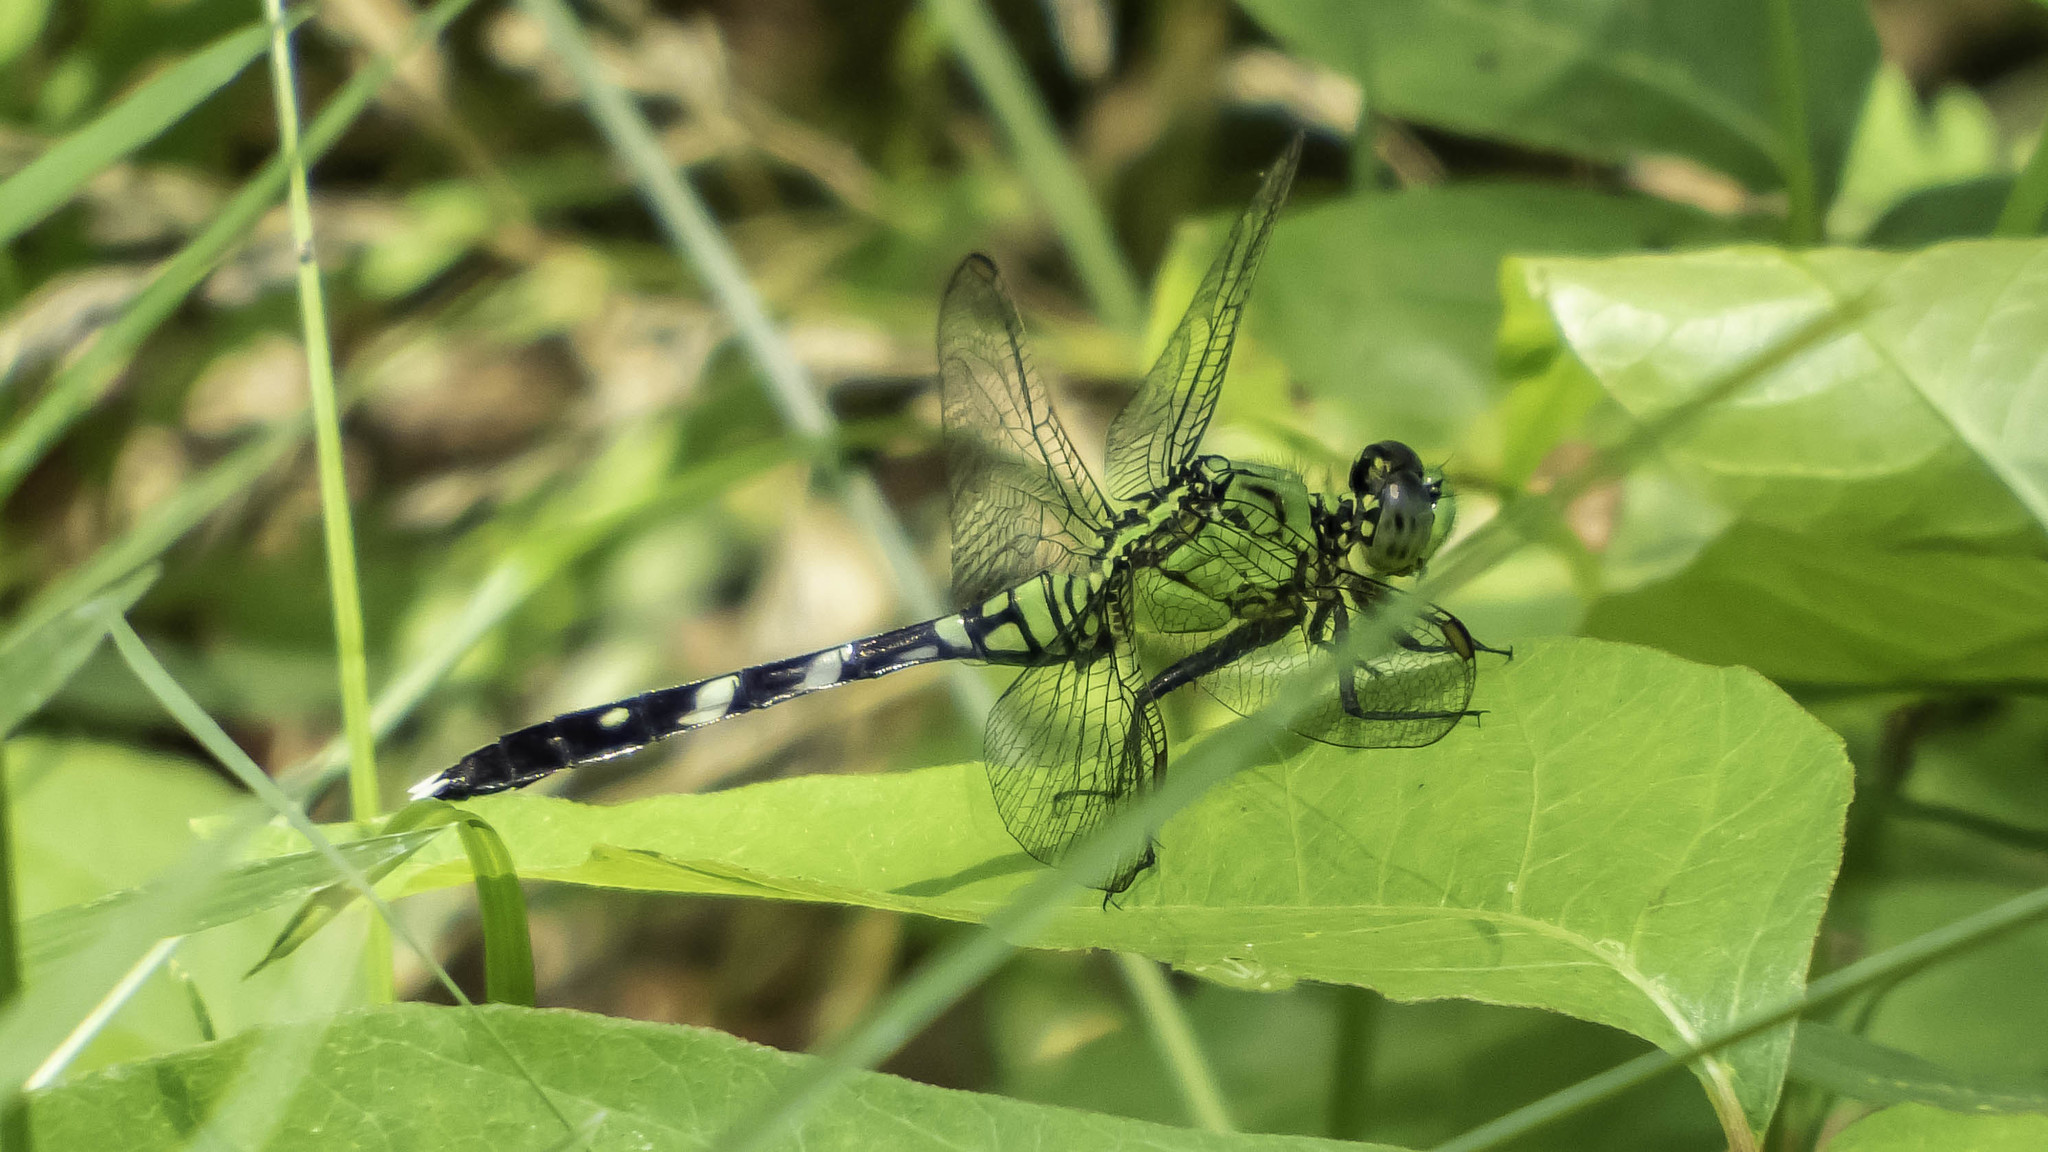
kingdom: Animalia
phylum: Arthropoda
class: Insecta
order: Odonata
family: Libellulidae
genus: Erythemis
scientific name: Erythemis simplicicollis
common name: Eastern pondhawk
